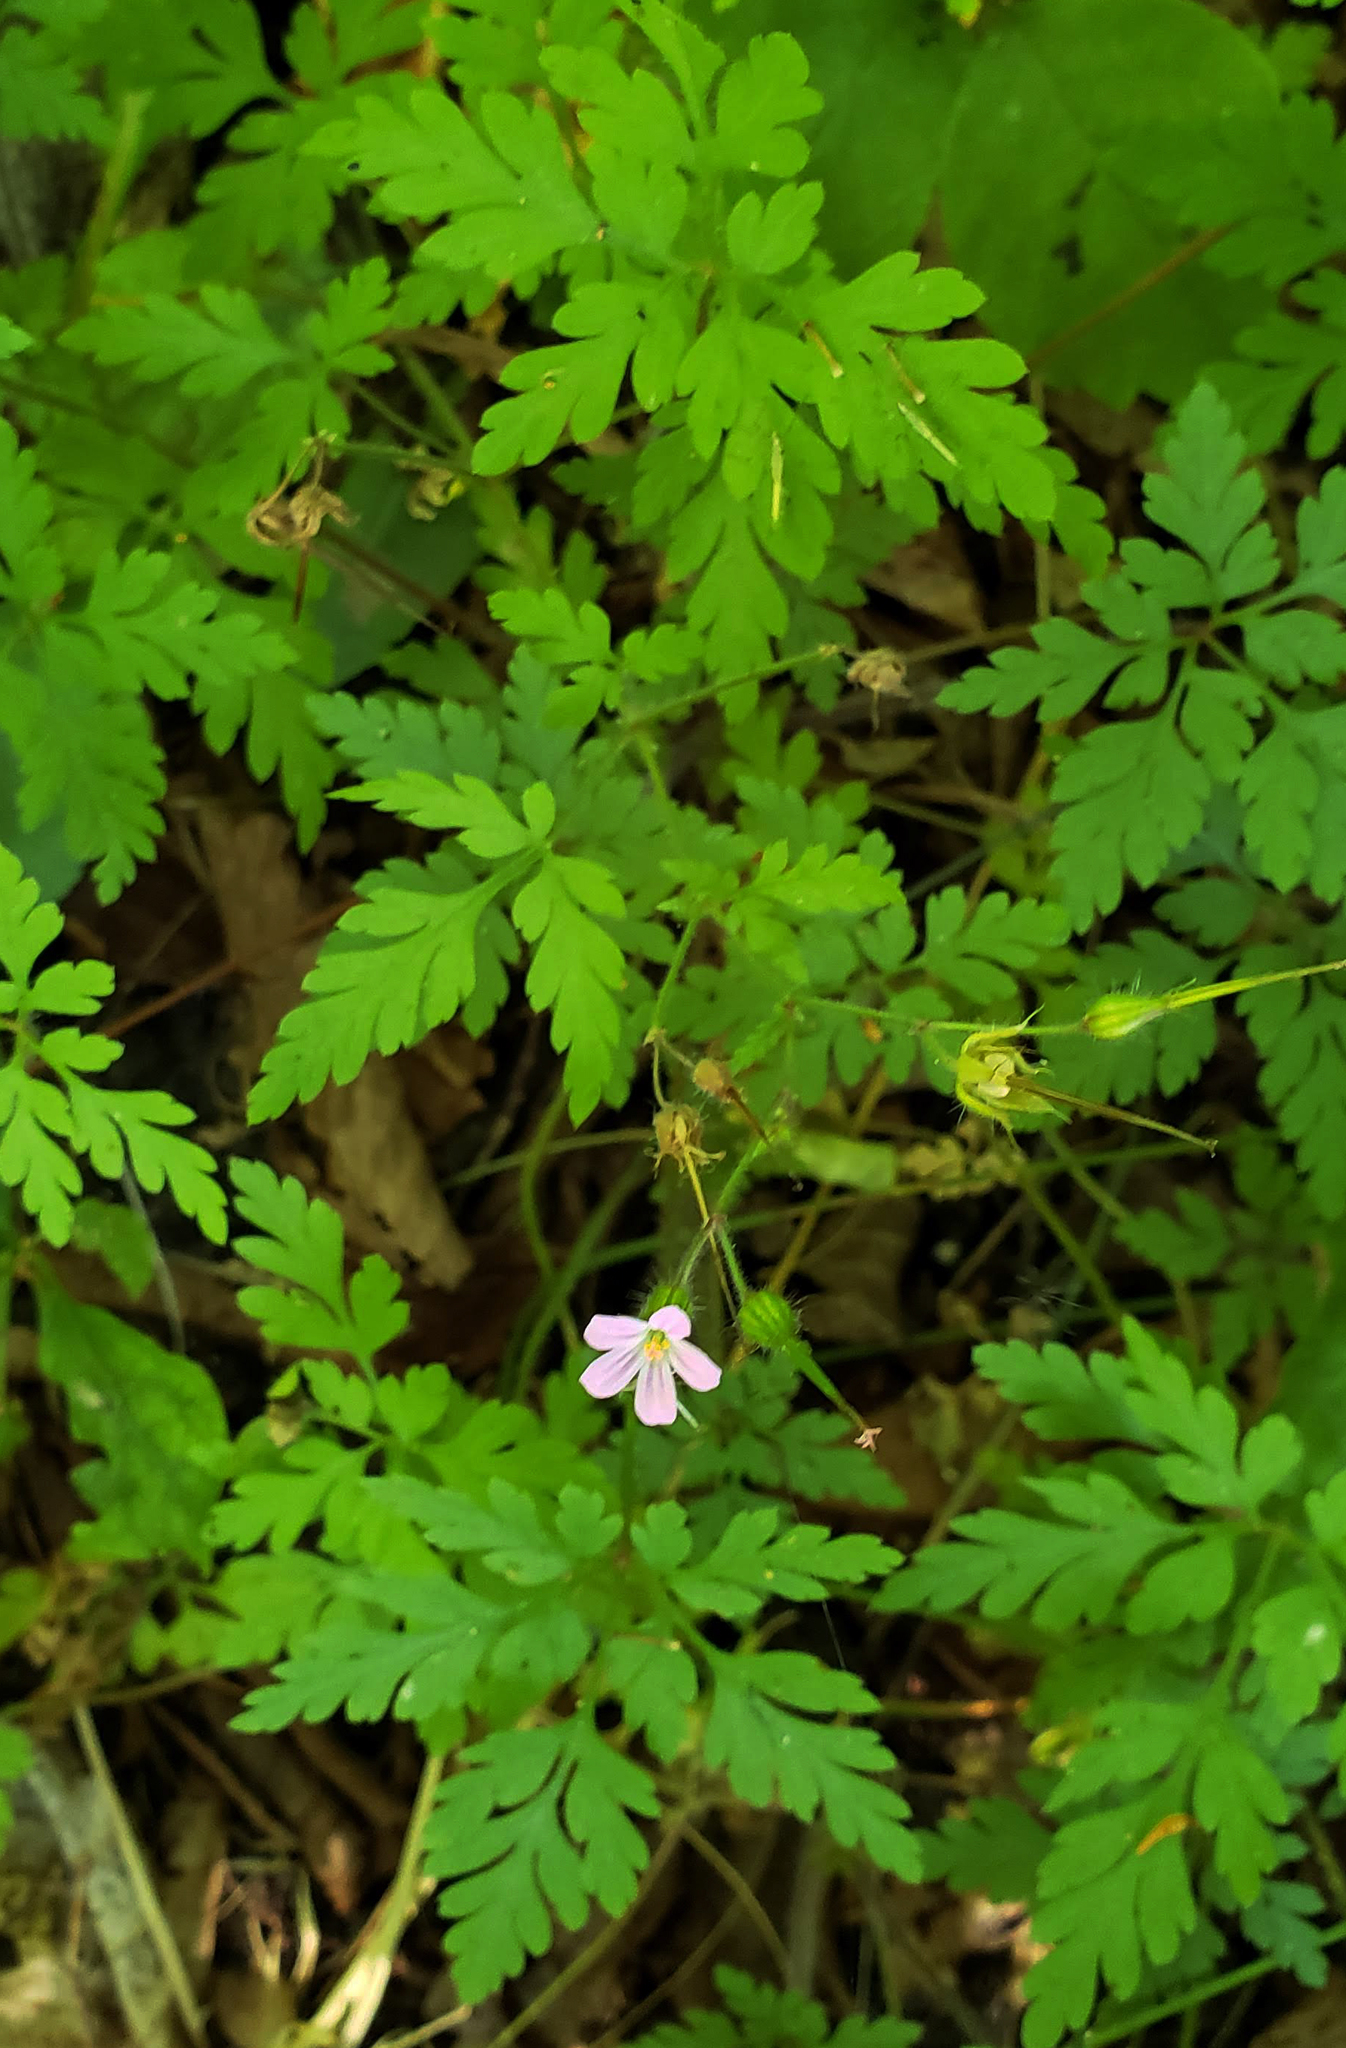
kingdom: Plantae
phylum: Tracheophyta
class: Magnoliopsida
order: Geraniales
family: Geraniaceae
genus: Geranium
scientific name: Geranium robertianum
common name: Herb-robert
